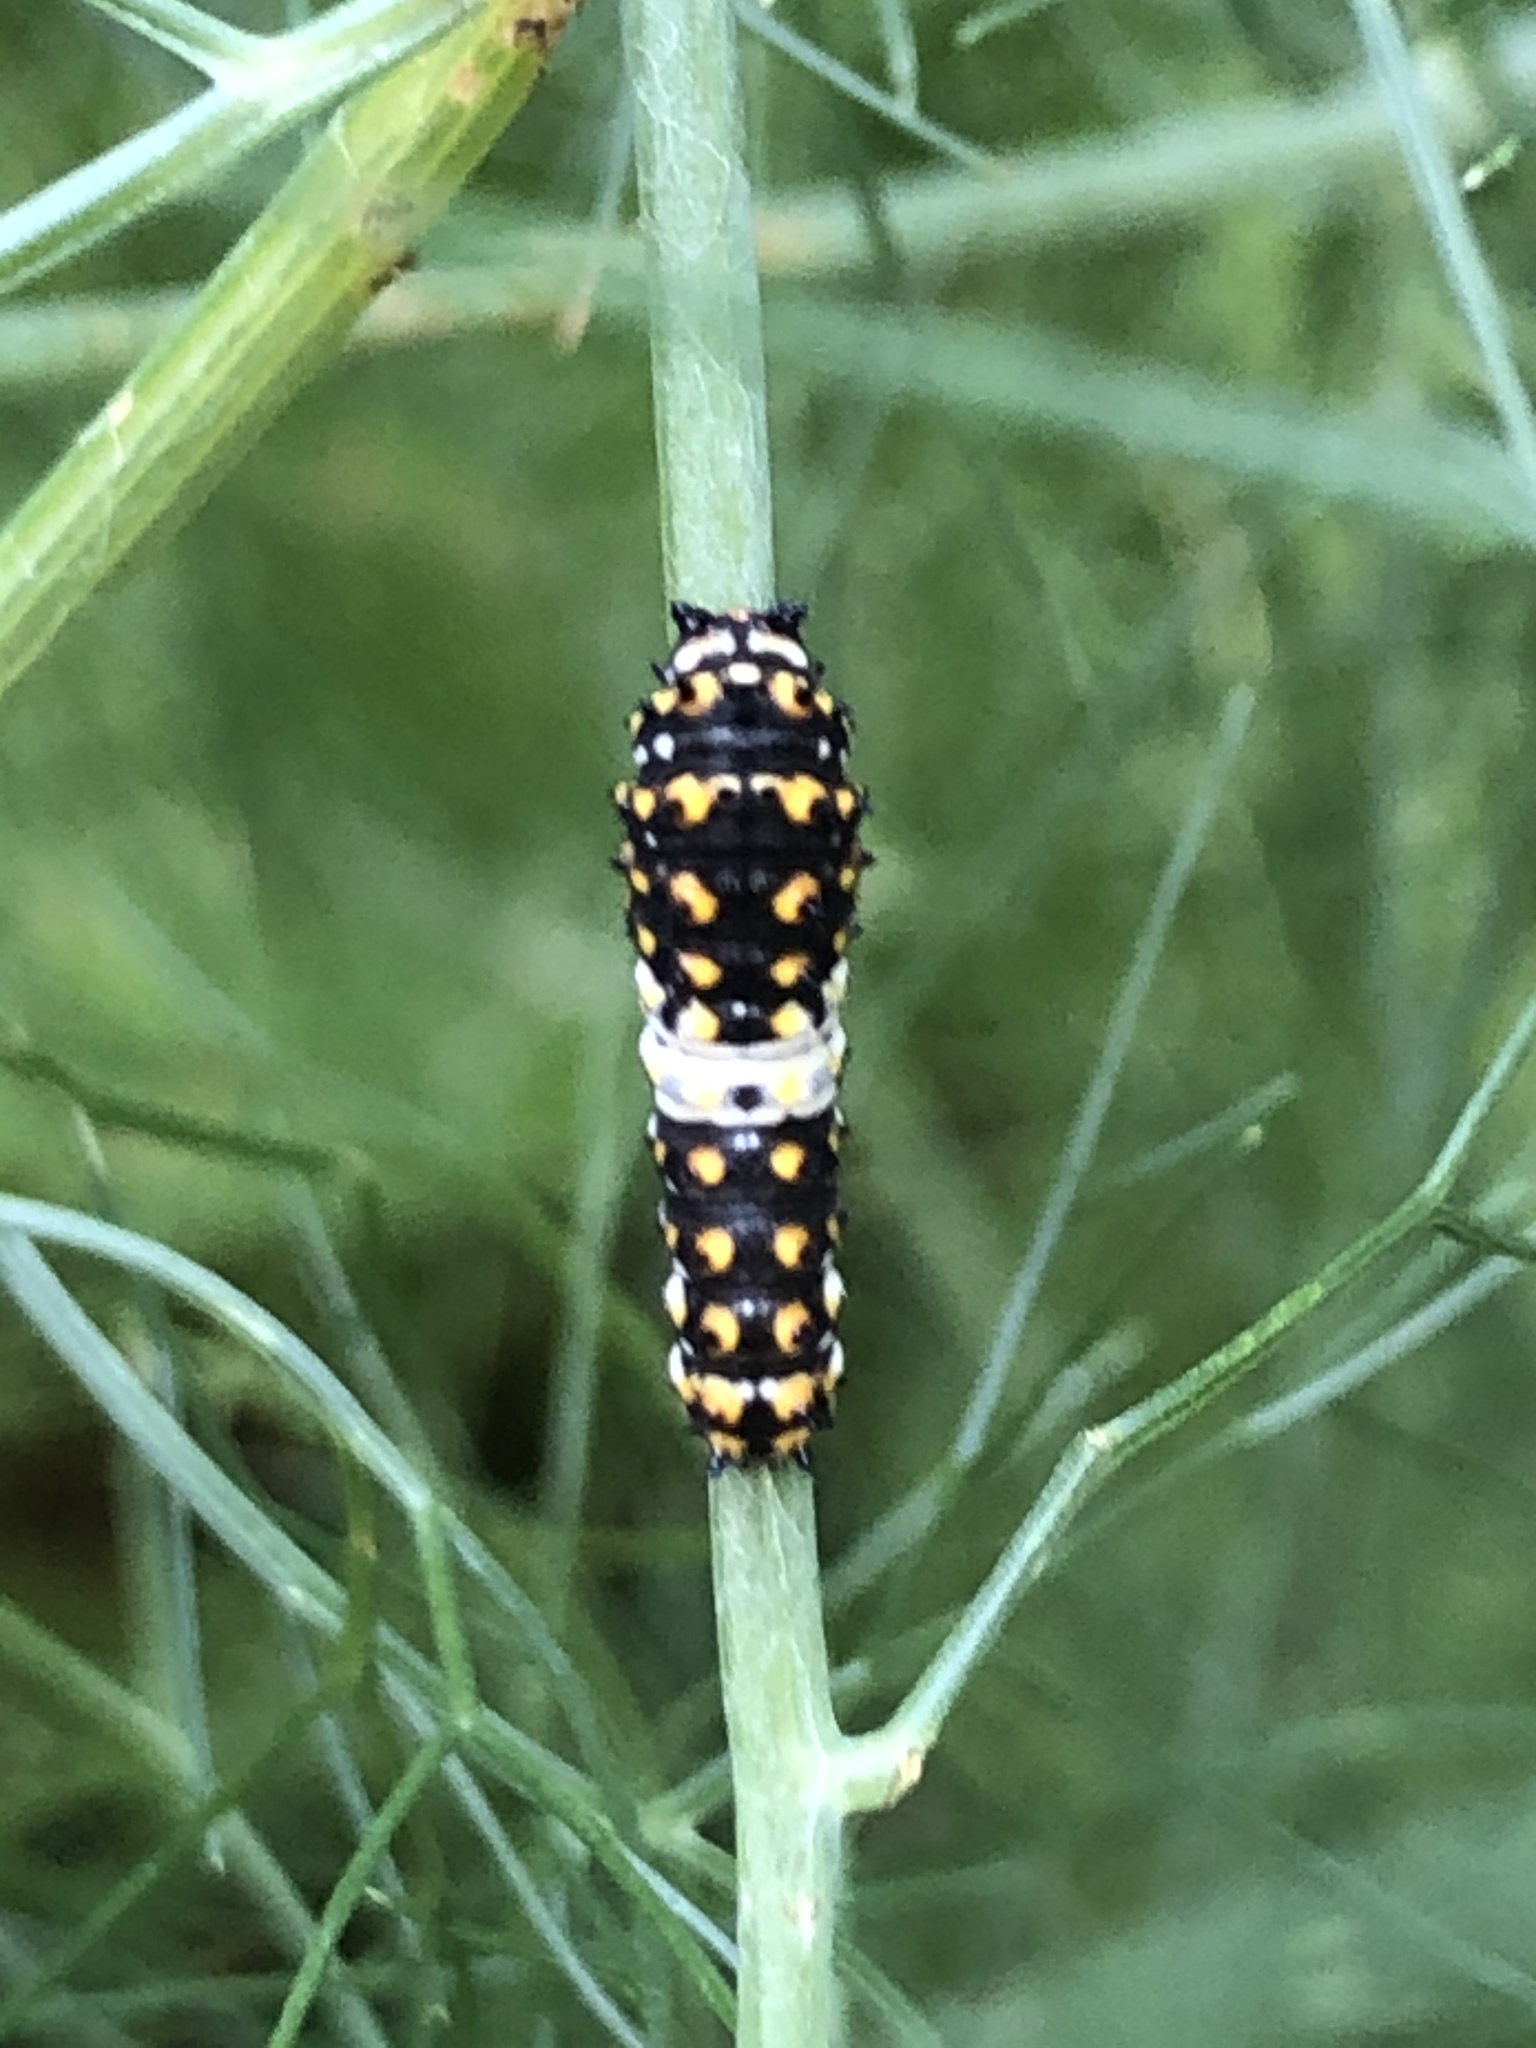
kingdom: Animalia
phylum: Arthropoda
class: Insecta
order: Lepidoptera
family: Papilionidae
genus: Papilio
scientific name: Papilio polyxenes
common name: Black swallowtail
